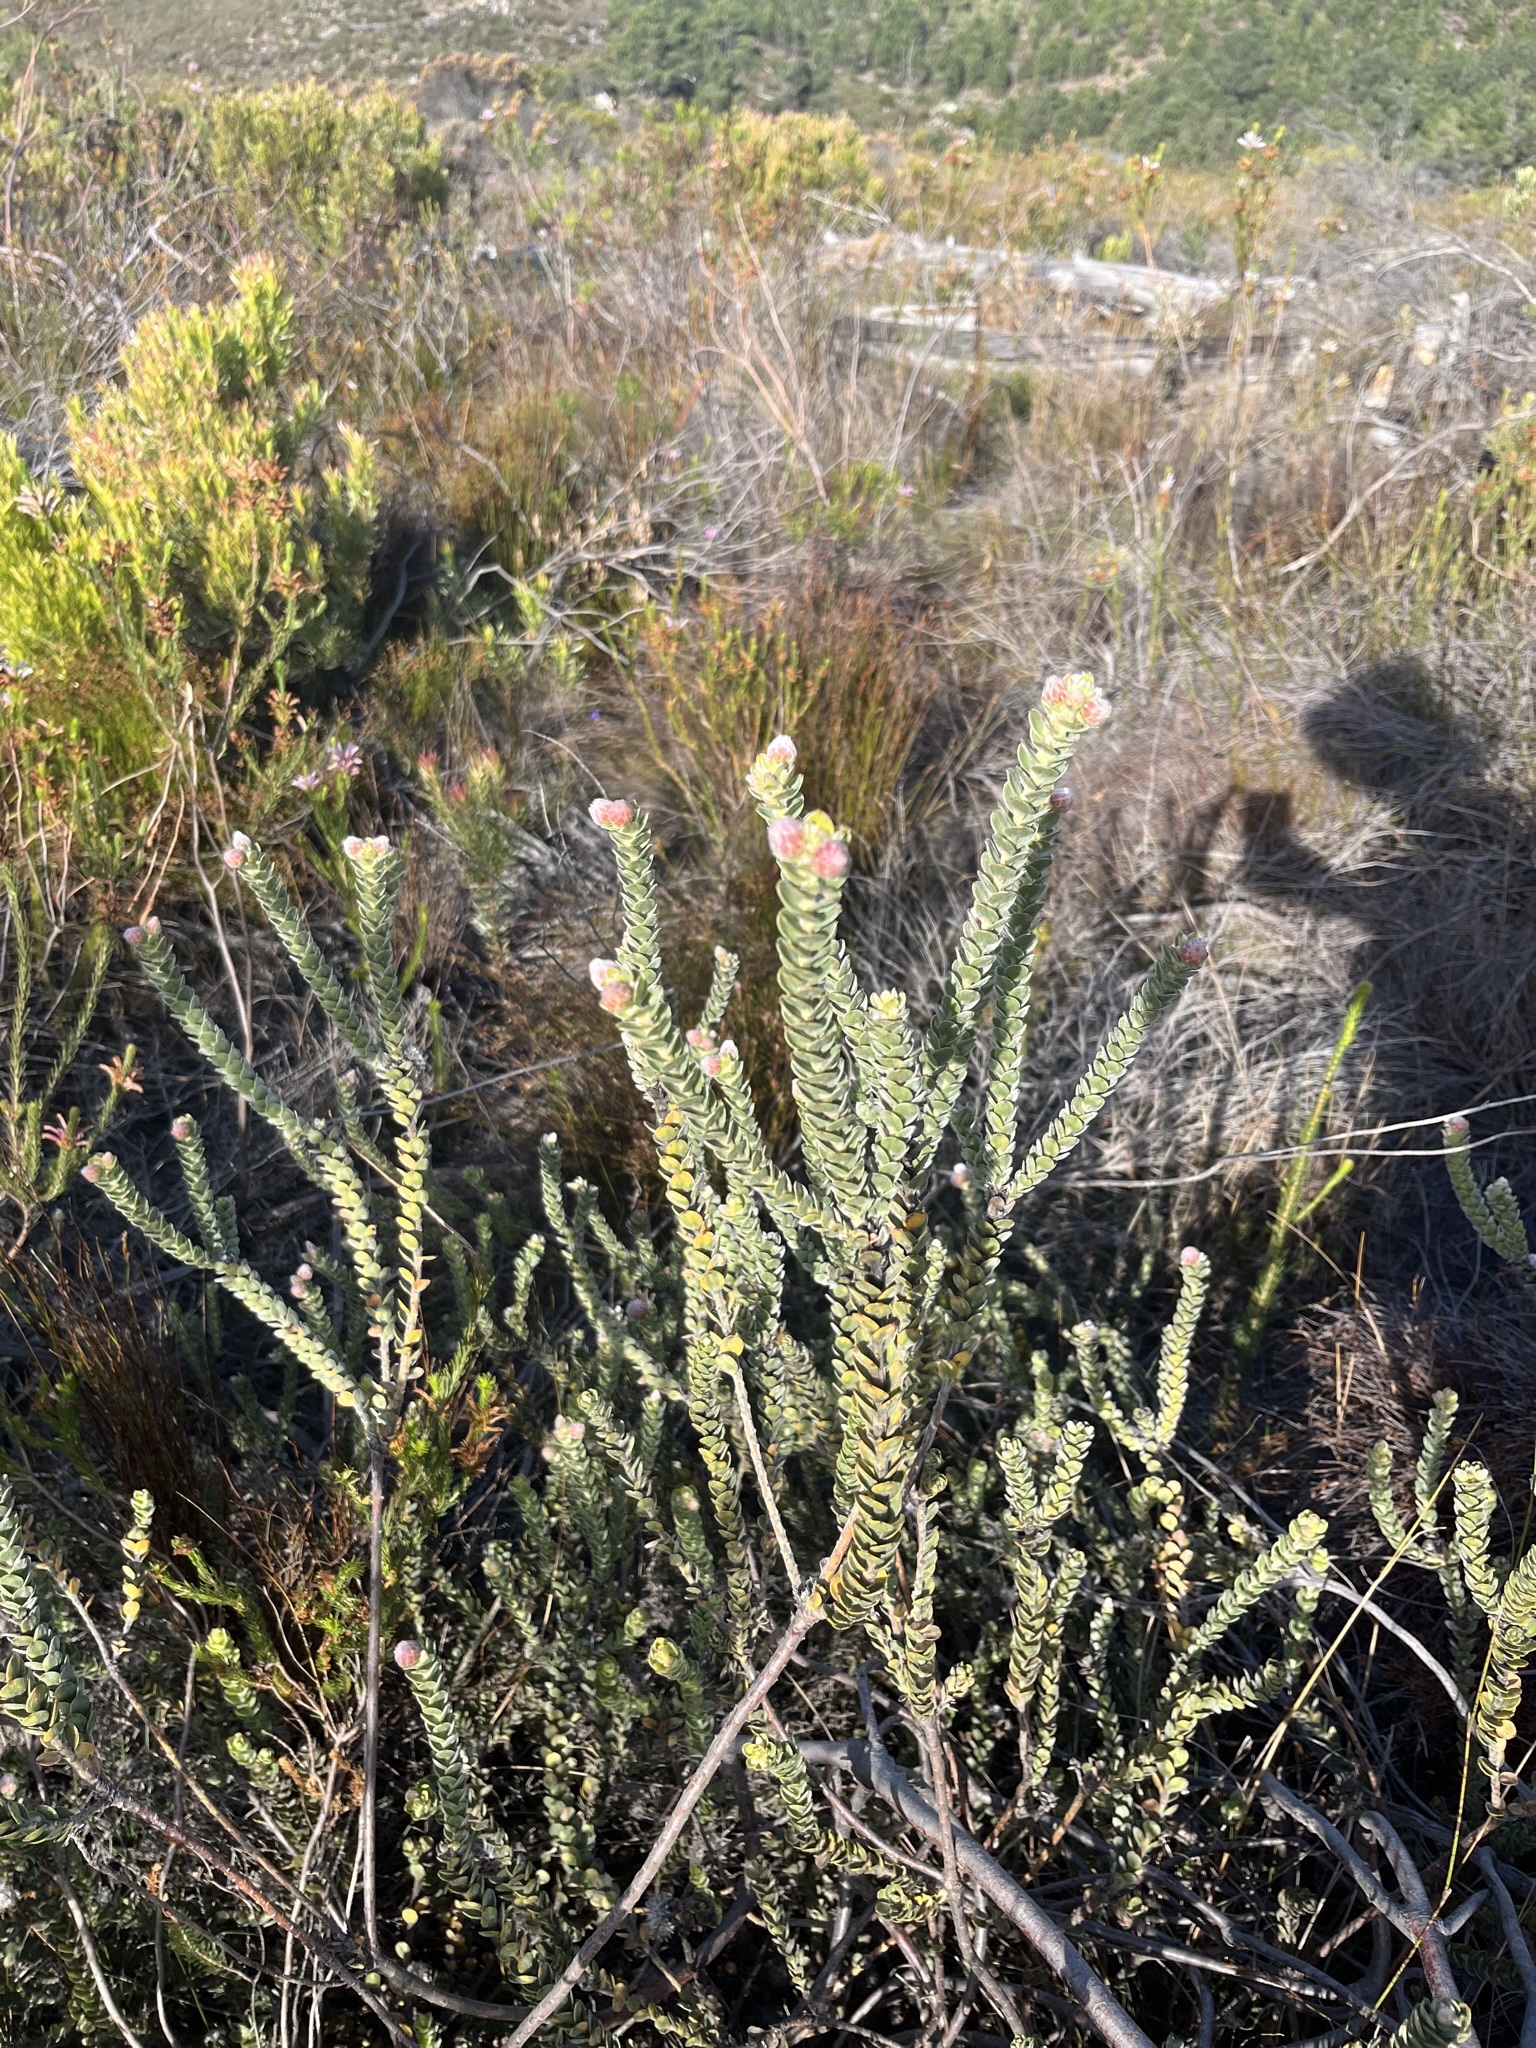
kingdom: Plantae
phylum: Tracheophyta
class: Magnoliopsida
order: Proteales
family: Proteaceae
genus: Leucospermum
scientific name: Leucospermum truncatulum
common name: Oval-leaf pincushion
